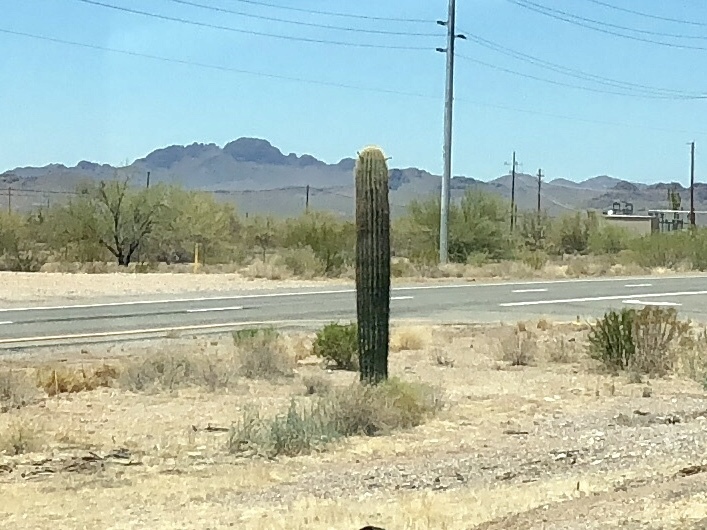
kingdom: Plantae
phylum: Tracheophyta
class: Magnoliopsida
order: Caryophyllales
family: Cactaceae
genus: Carnegiea
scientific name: Carnegiea gigantea
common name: Saguaro
